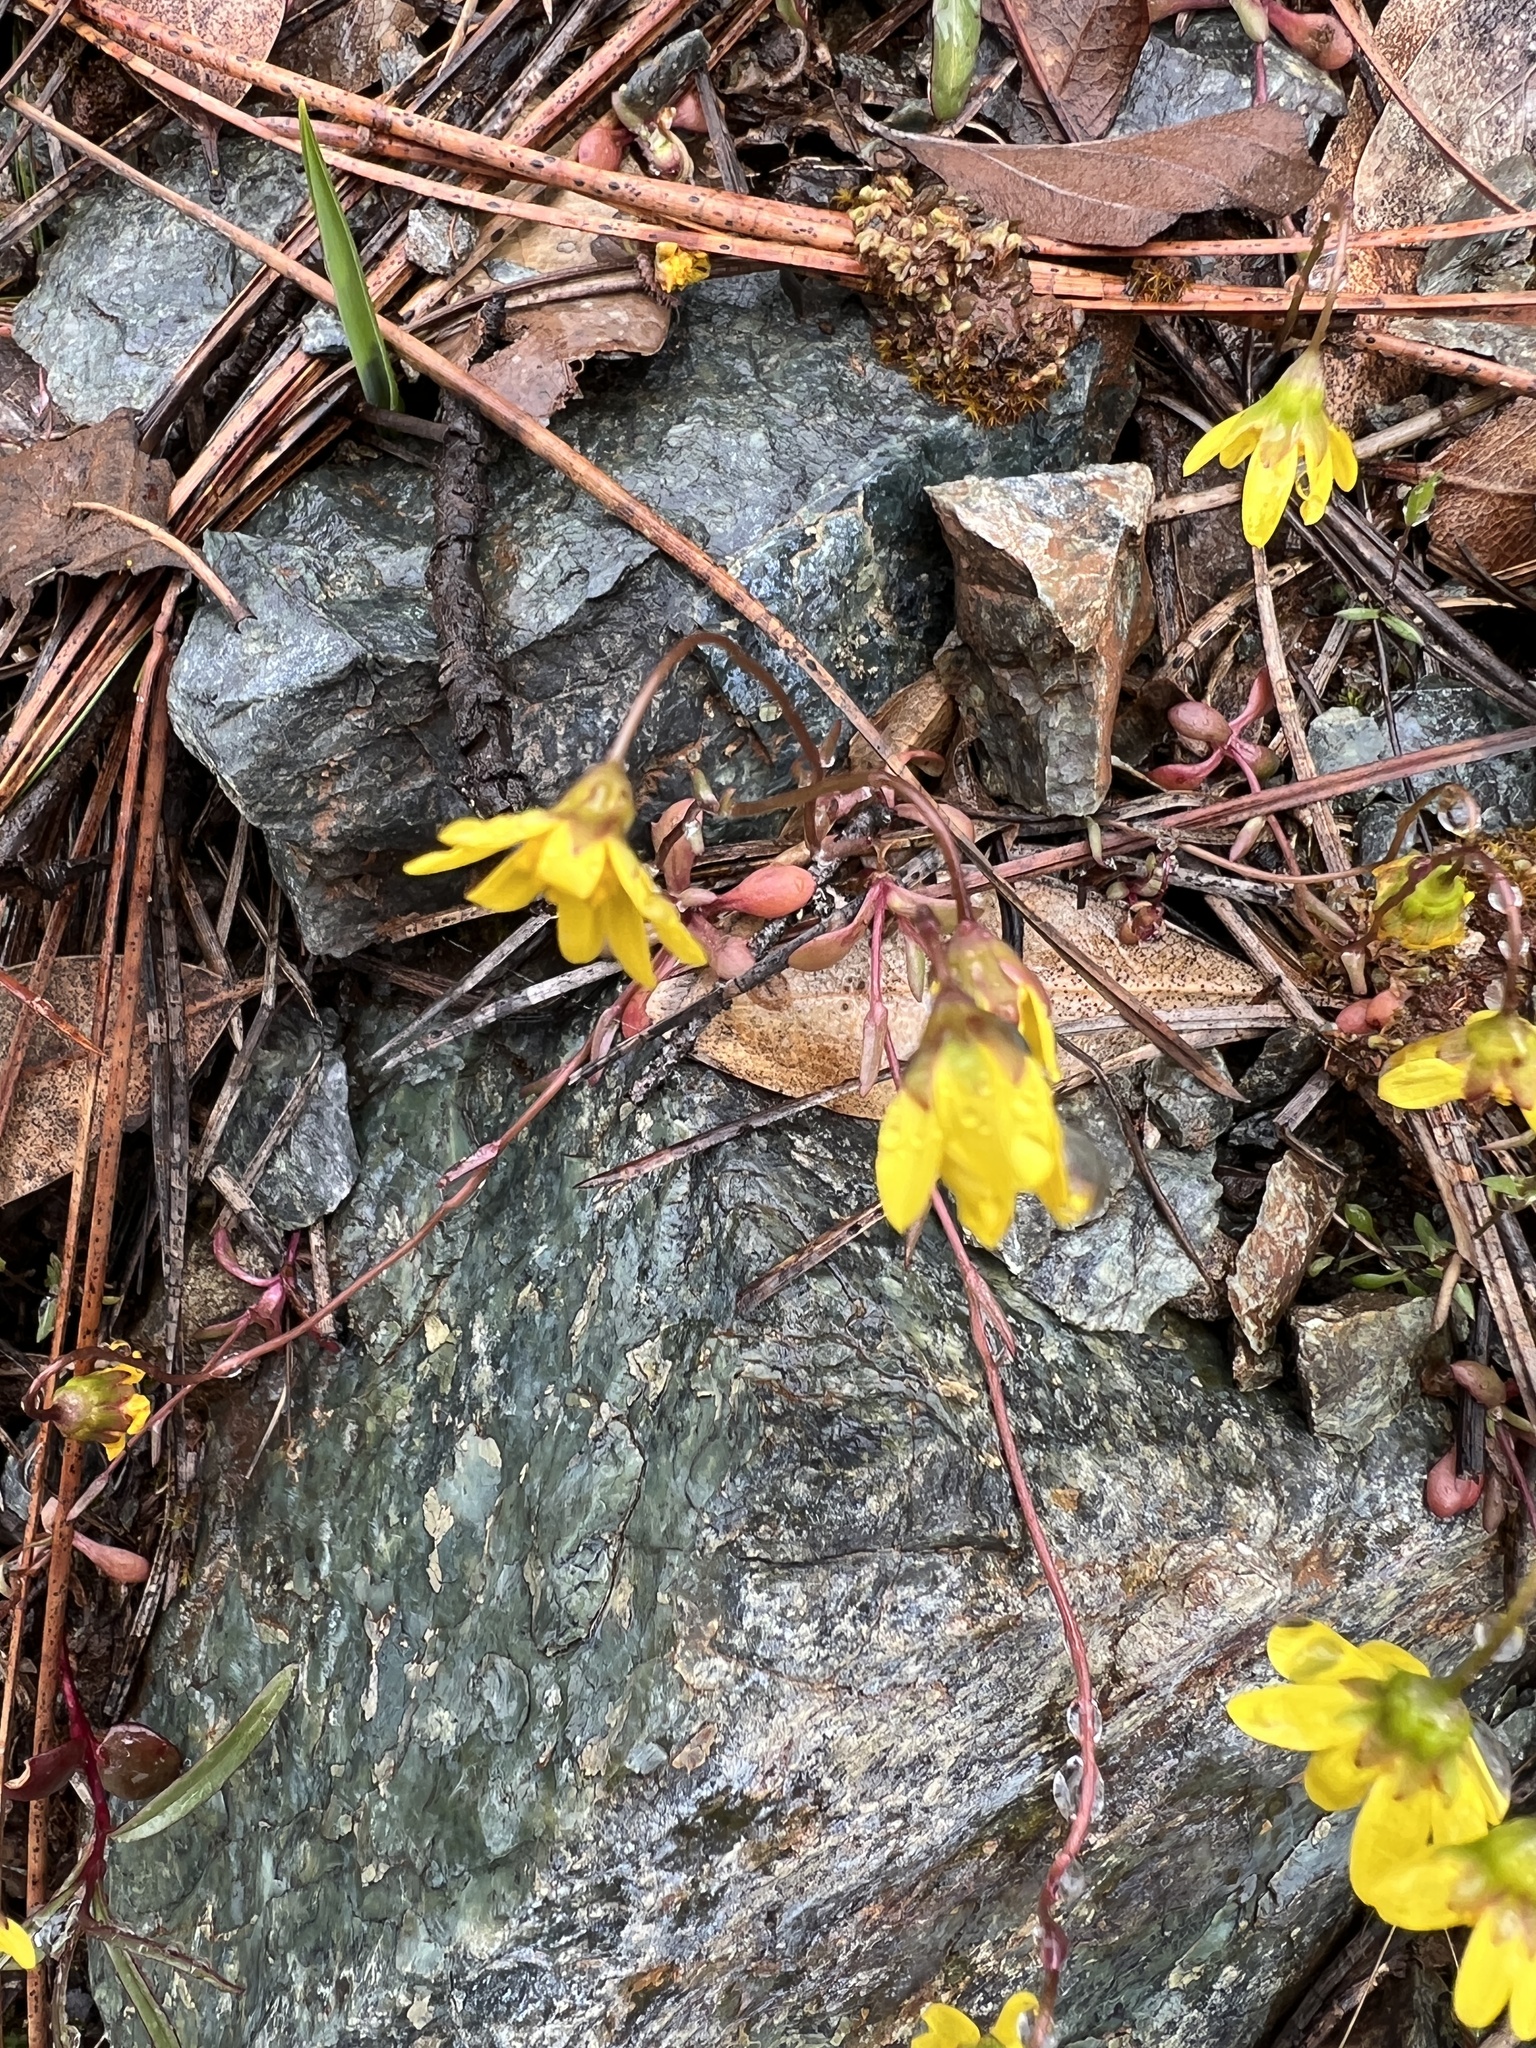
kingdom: Plantae
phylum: Tracheophyta
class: Magnoliopsida
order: Asterales
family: Asteraceae
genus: Crocidium
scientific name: Crocidium multicaule
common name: Common spring gold
